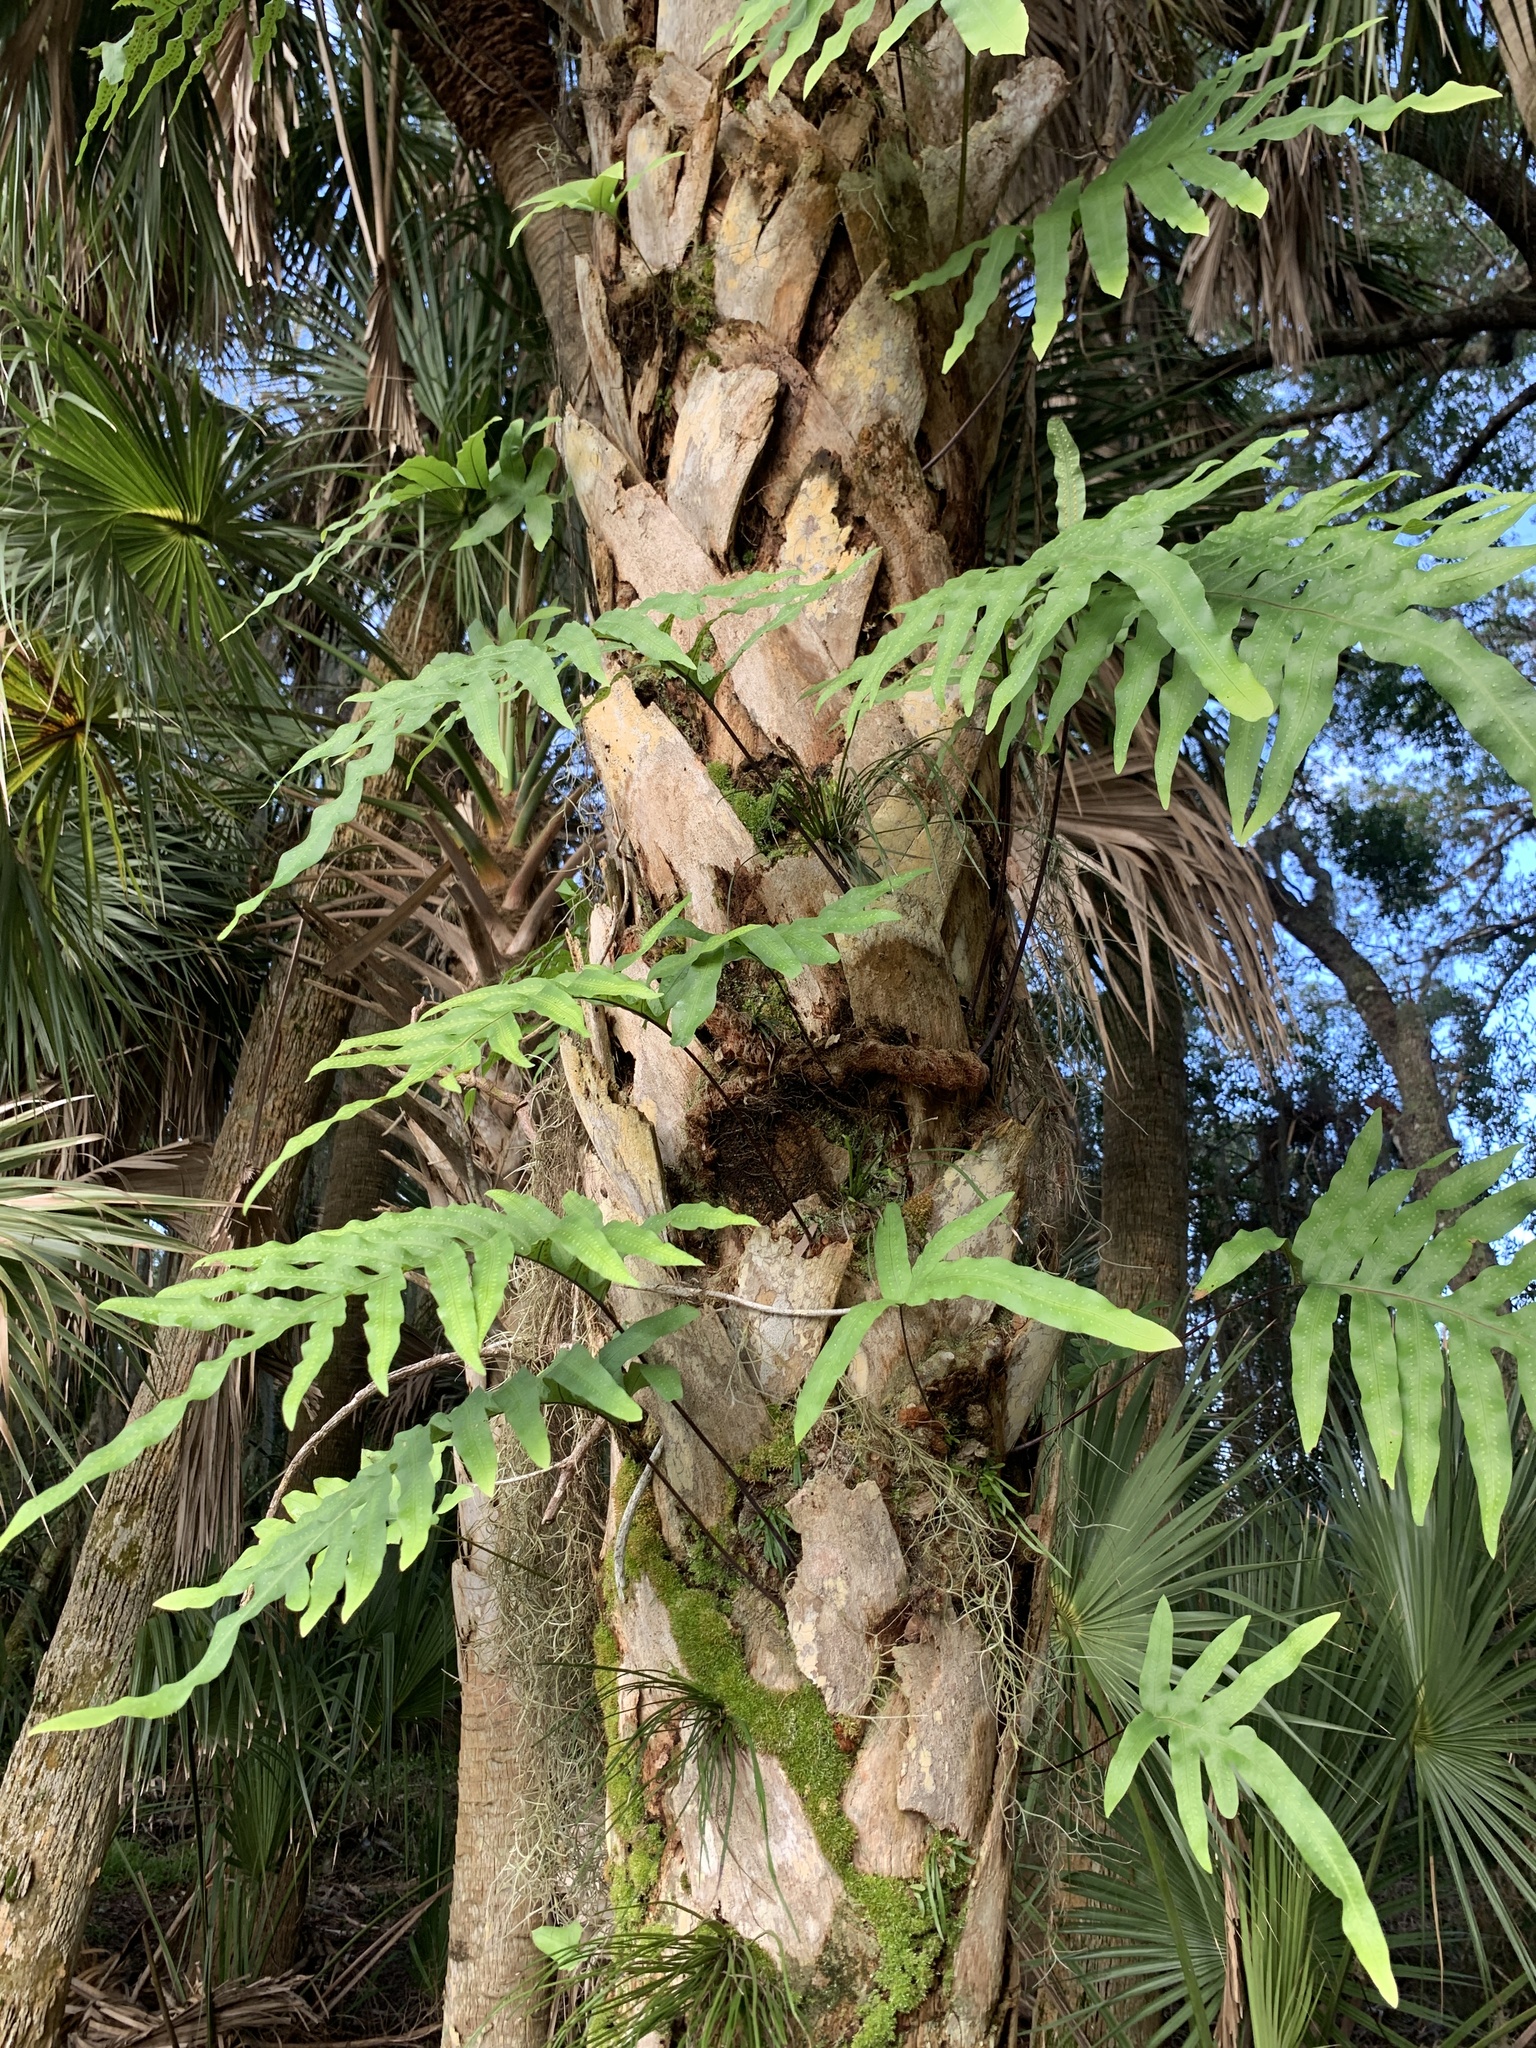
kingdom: Plantae
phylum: Tracheophyta
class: Polypodiopsida
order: Polypodiales
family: Polypodiaceae
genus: Phlebodium
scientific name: Phlebodium aureum
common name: Gold-foot fern
